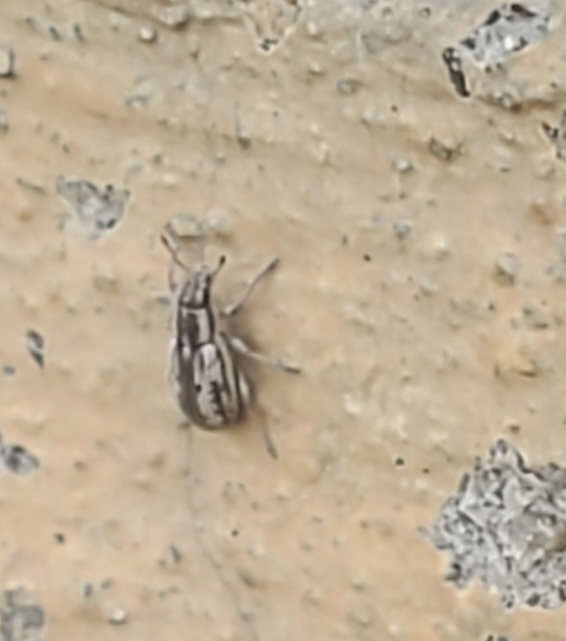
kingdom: Animalia
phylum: Arthropoda
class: Insecta
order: Coleoptera
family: Curculionidae
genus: Sitona
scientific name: Sitona lineellus
